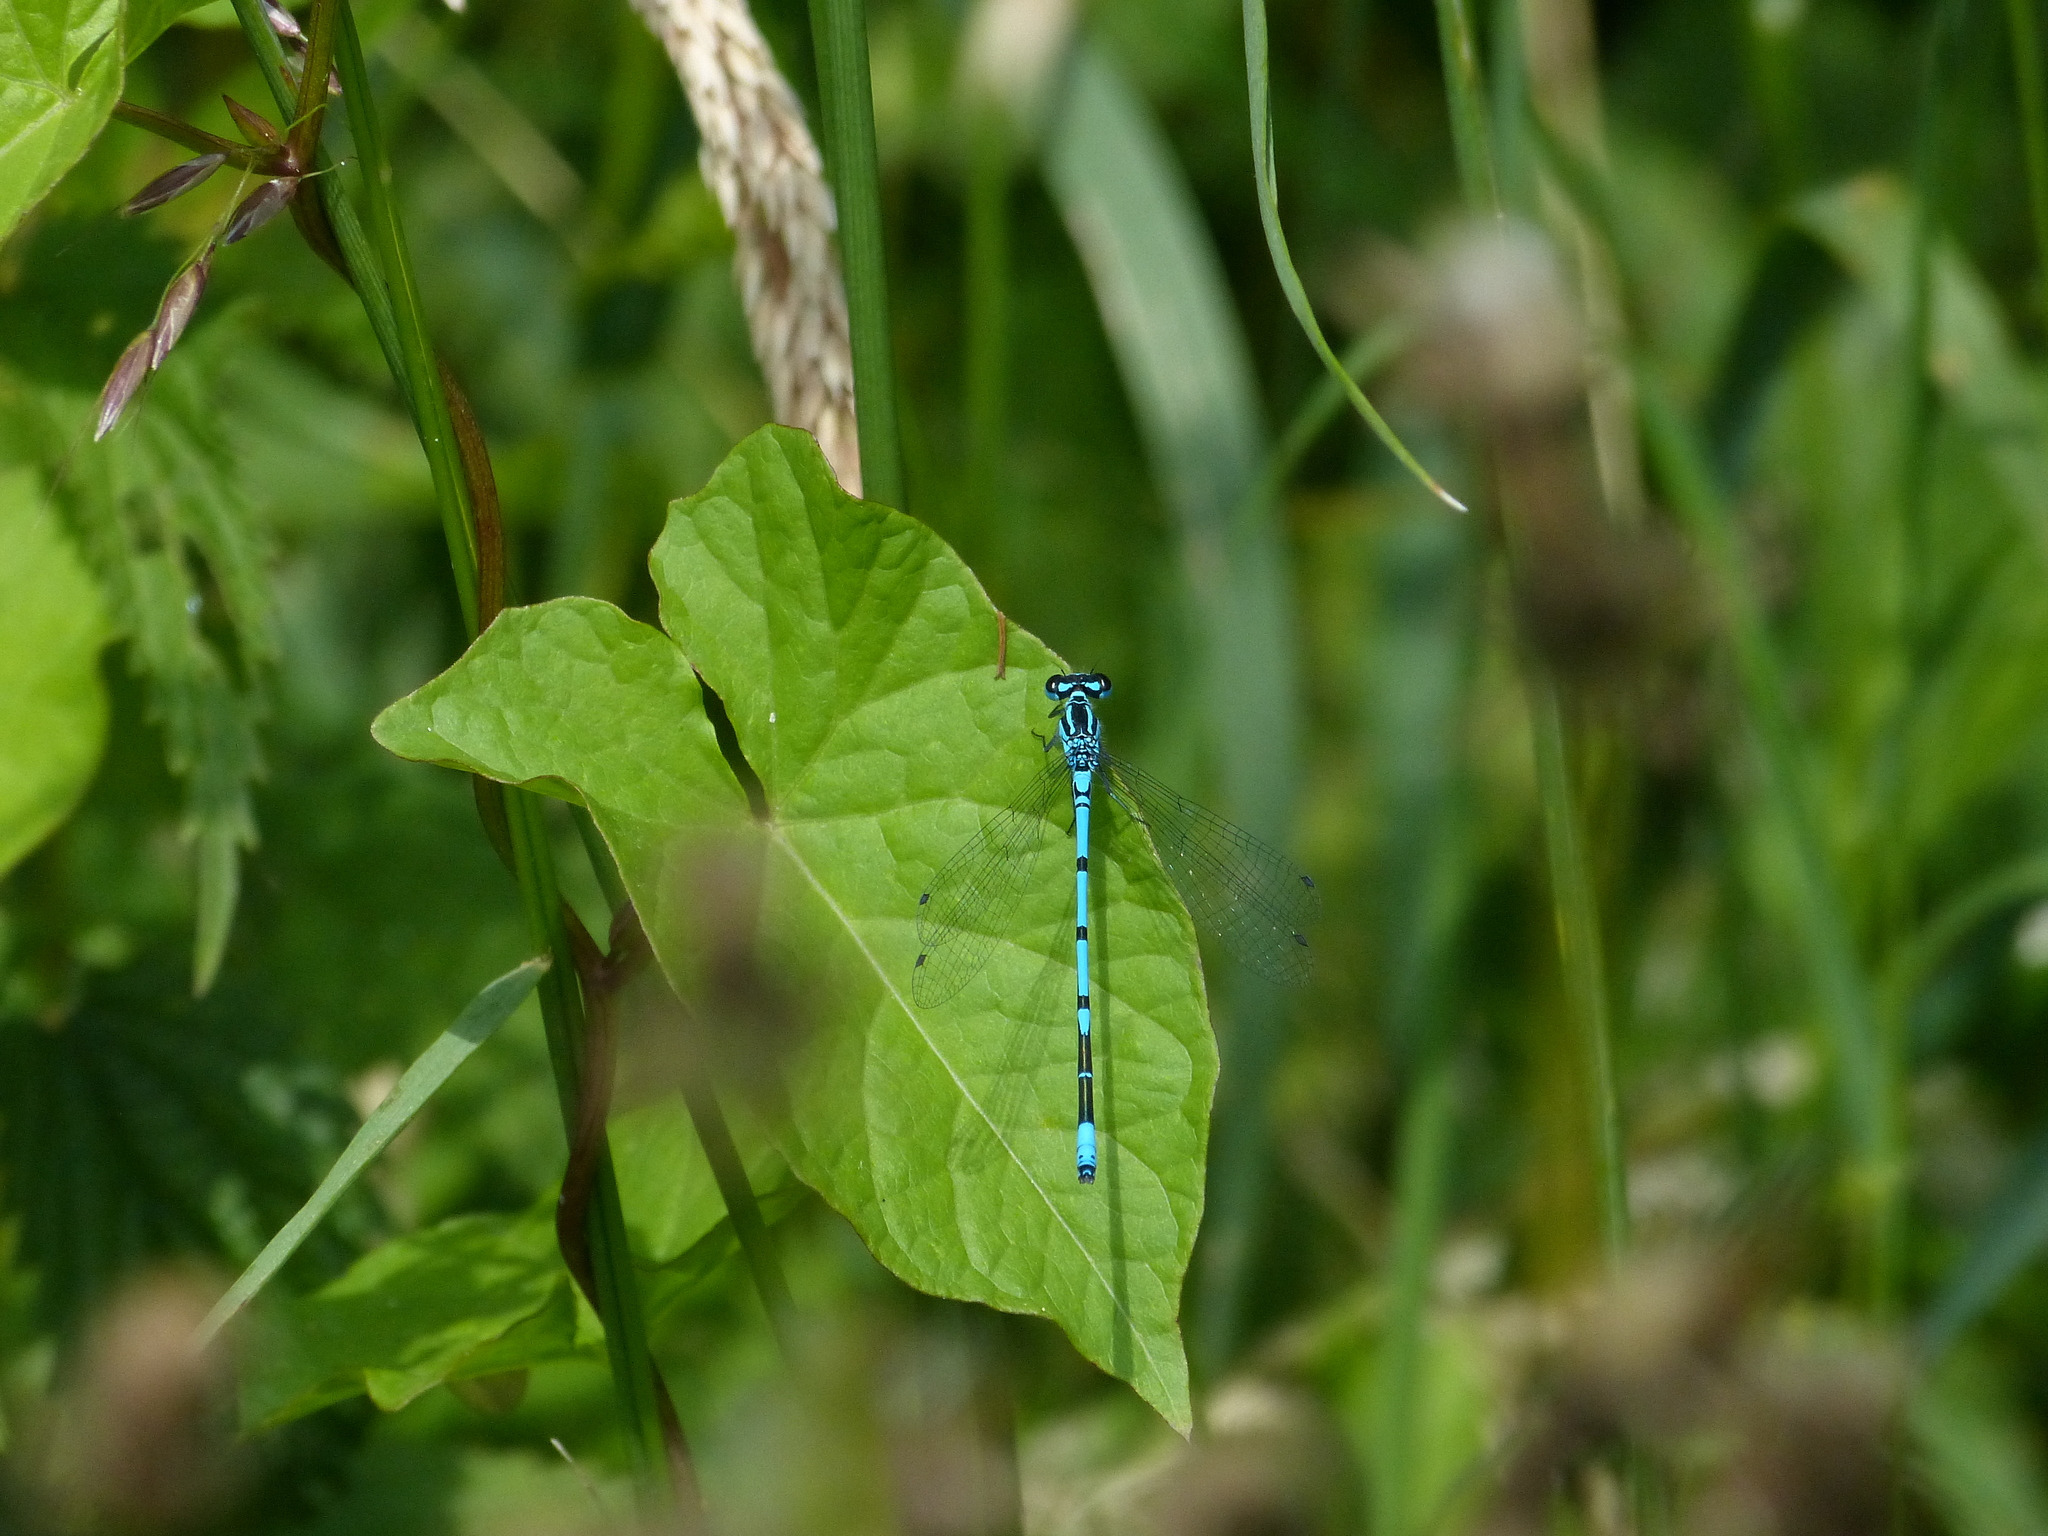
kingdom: Animalia
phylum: Arthropoda
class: Insecta
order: Odonata
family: Coenagrionidae
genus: Coenagrion
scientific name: Coenagrion puella
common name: Azure damselfly
